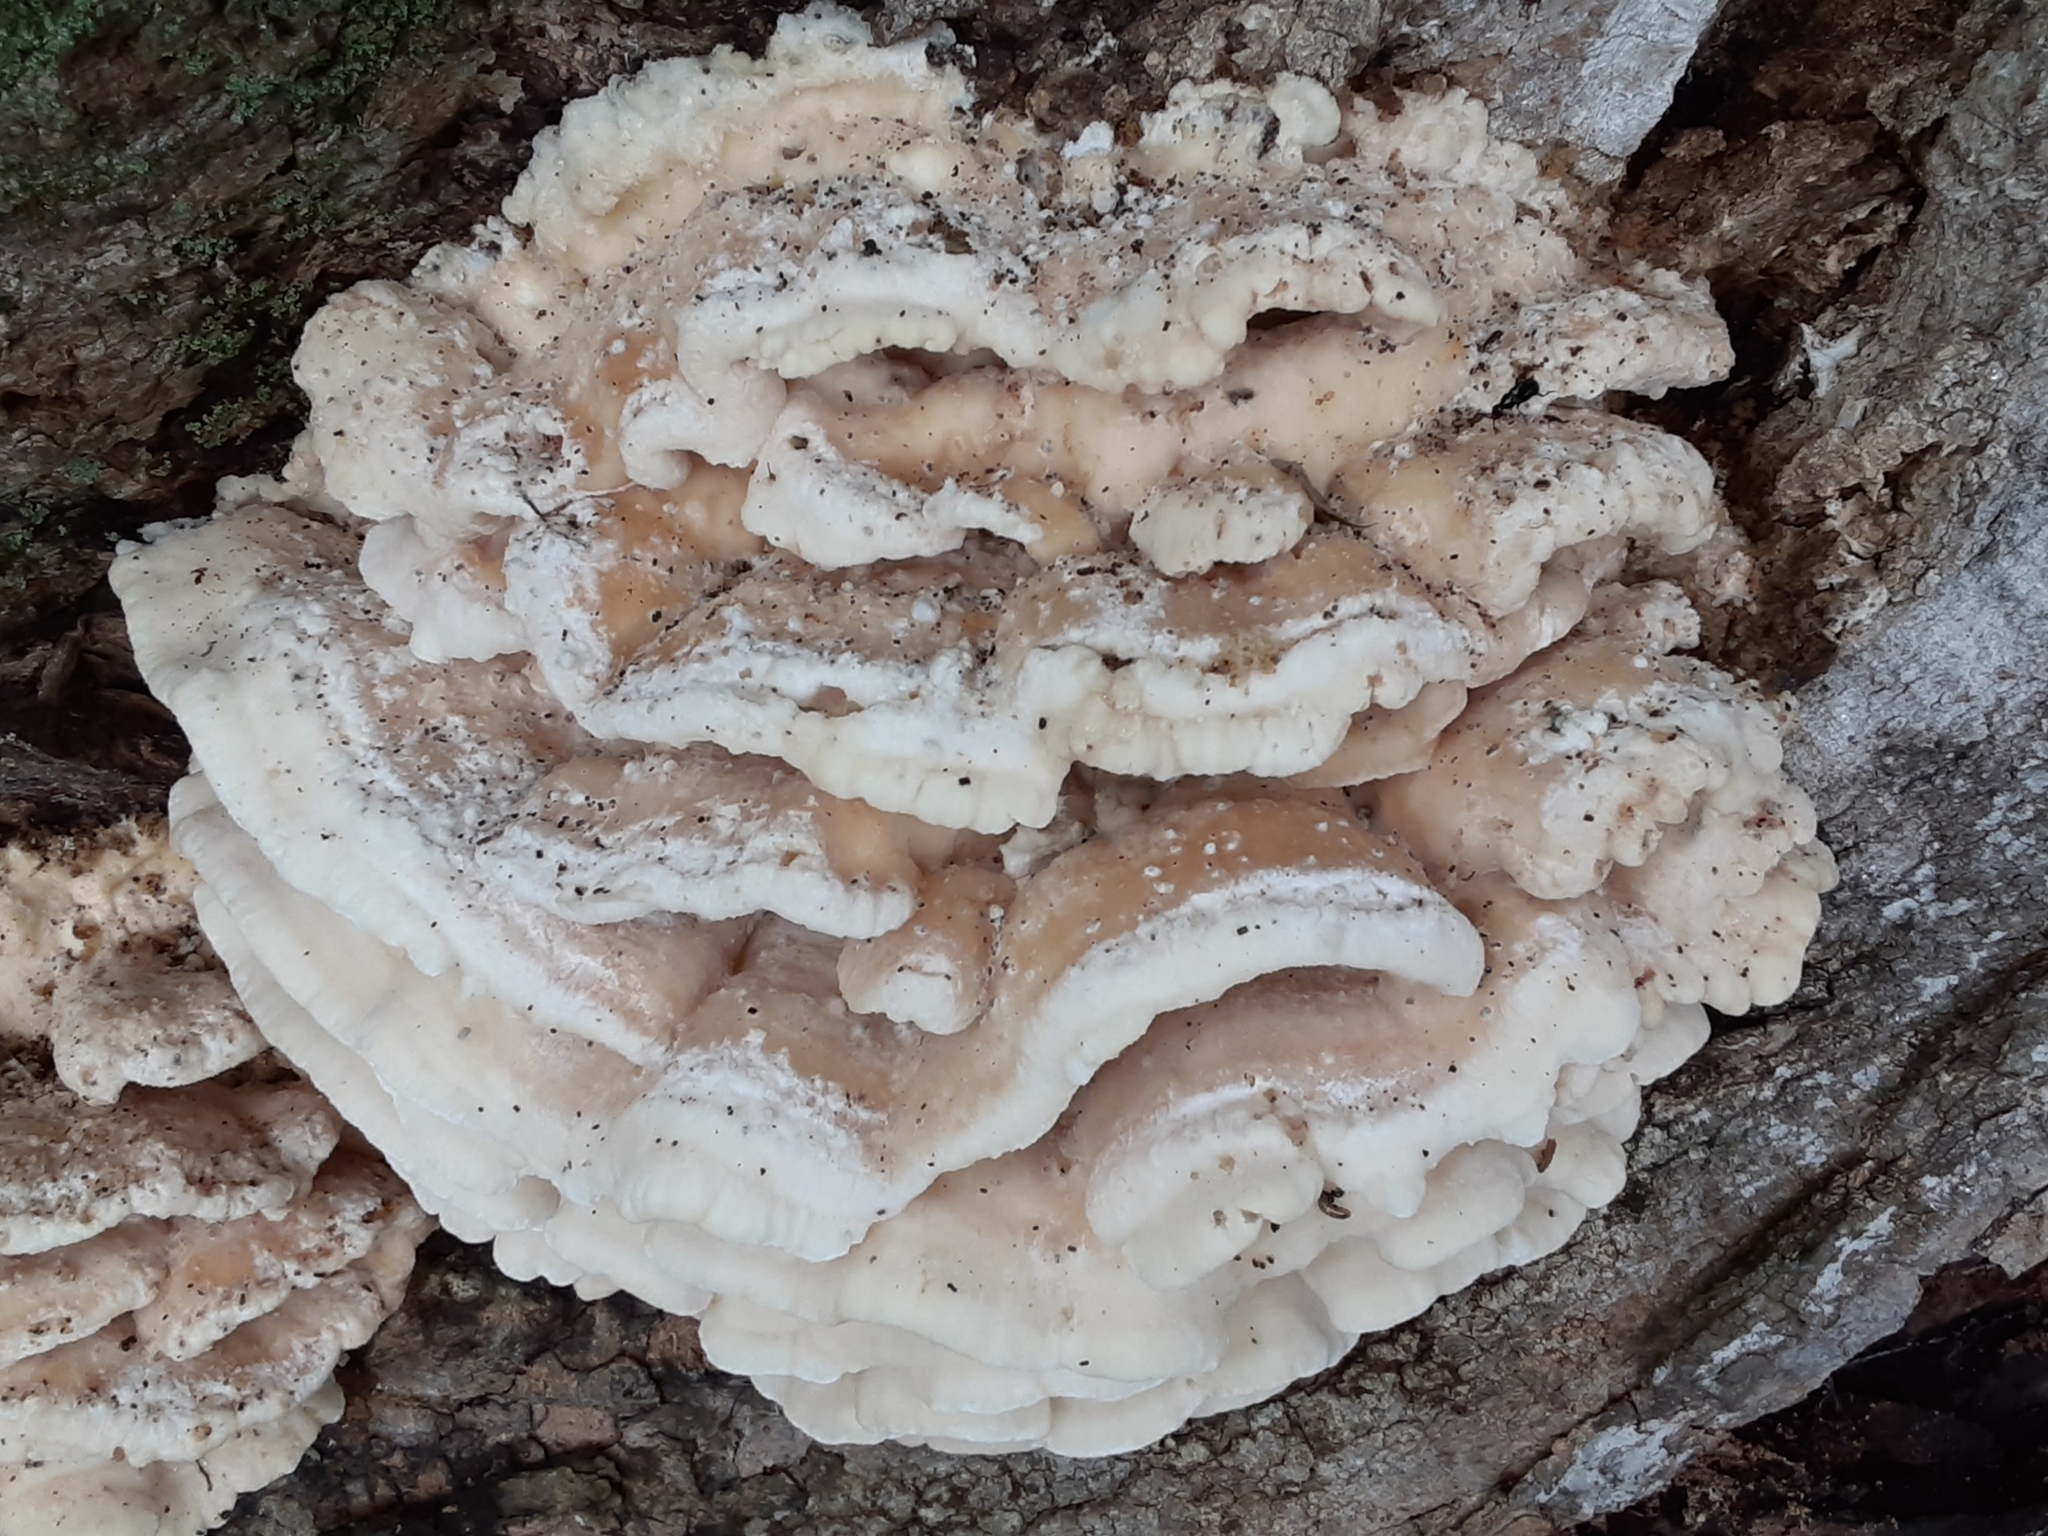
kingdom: Fungi
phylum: Basidiomycota
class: Agaricomycetes
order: Polyporales
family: Meruliaceae
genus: Climacodon
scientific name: Climacodon septentrionalis
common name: Northern tooth
